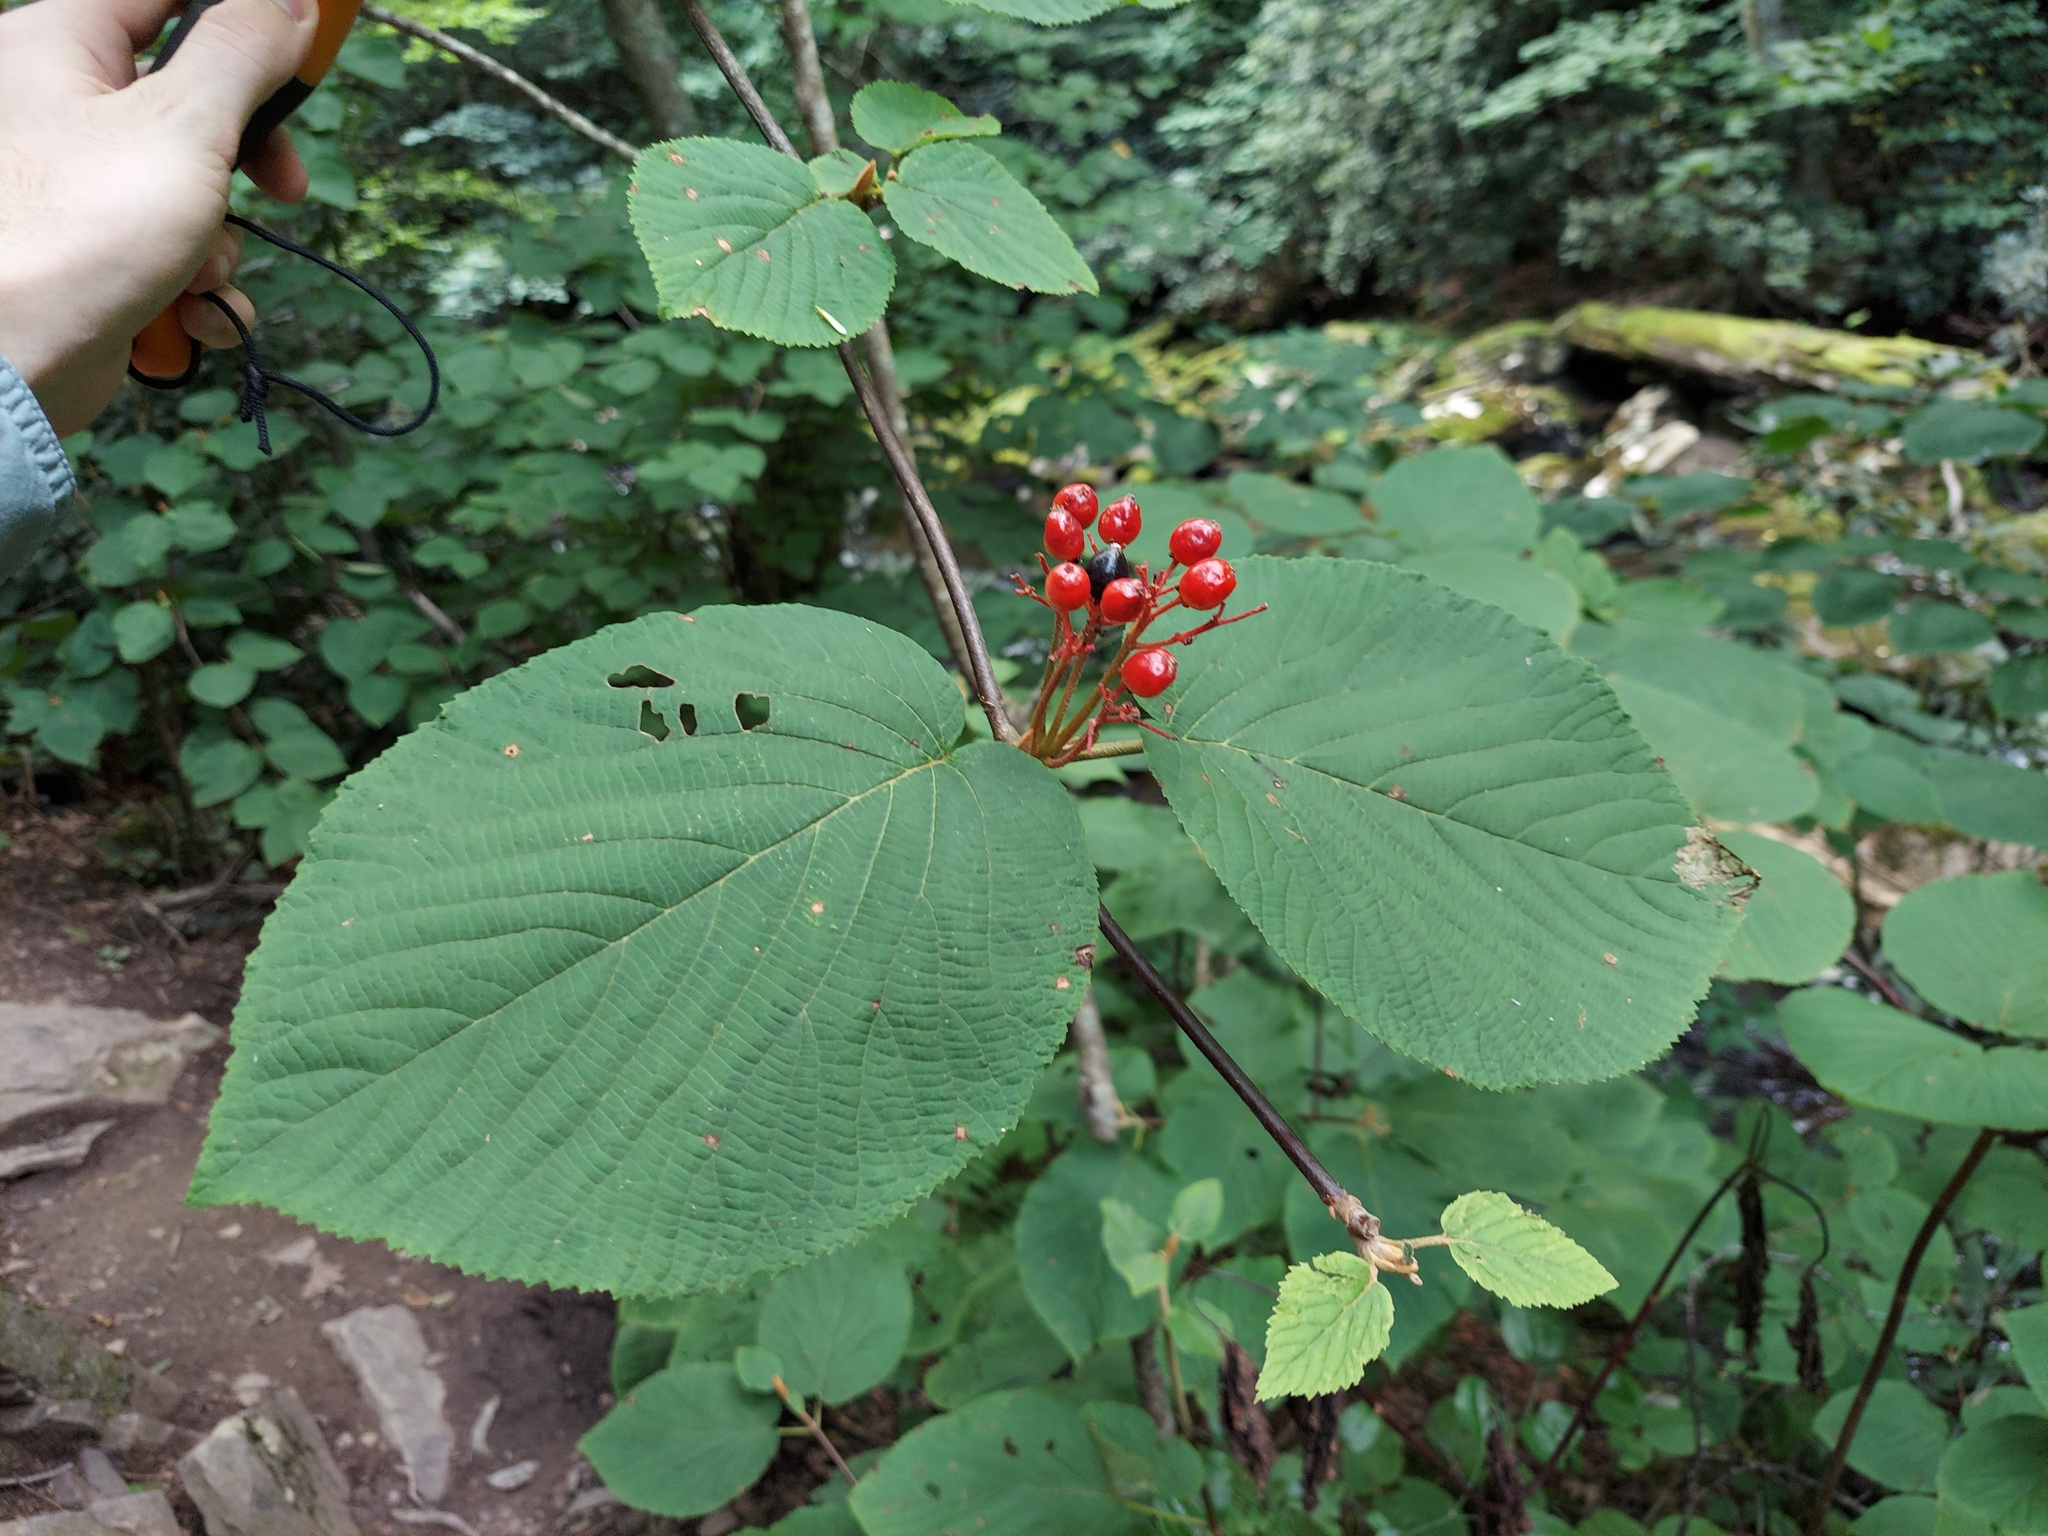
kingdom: Plantae
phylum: Tracheophyta
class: Magnoliopsida
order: Dipsacales
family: Viburnaceae
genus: Viburnum
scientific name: Viburnum lantanoides
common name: Hobblebush
